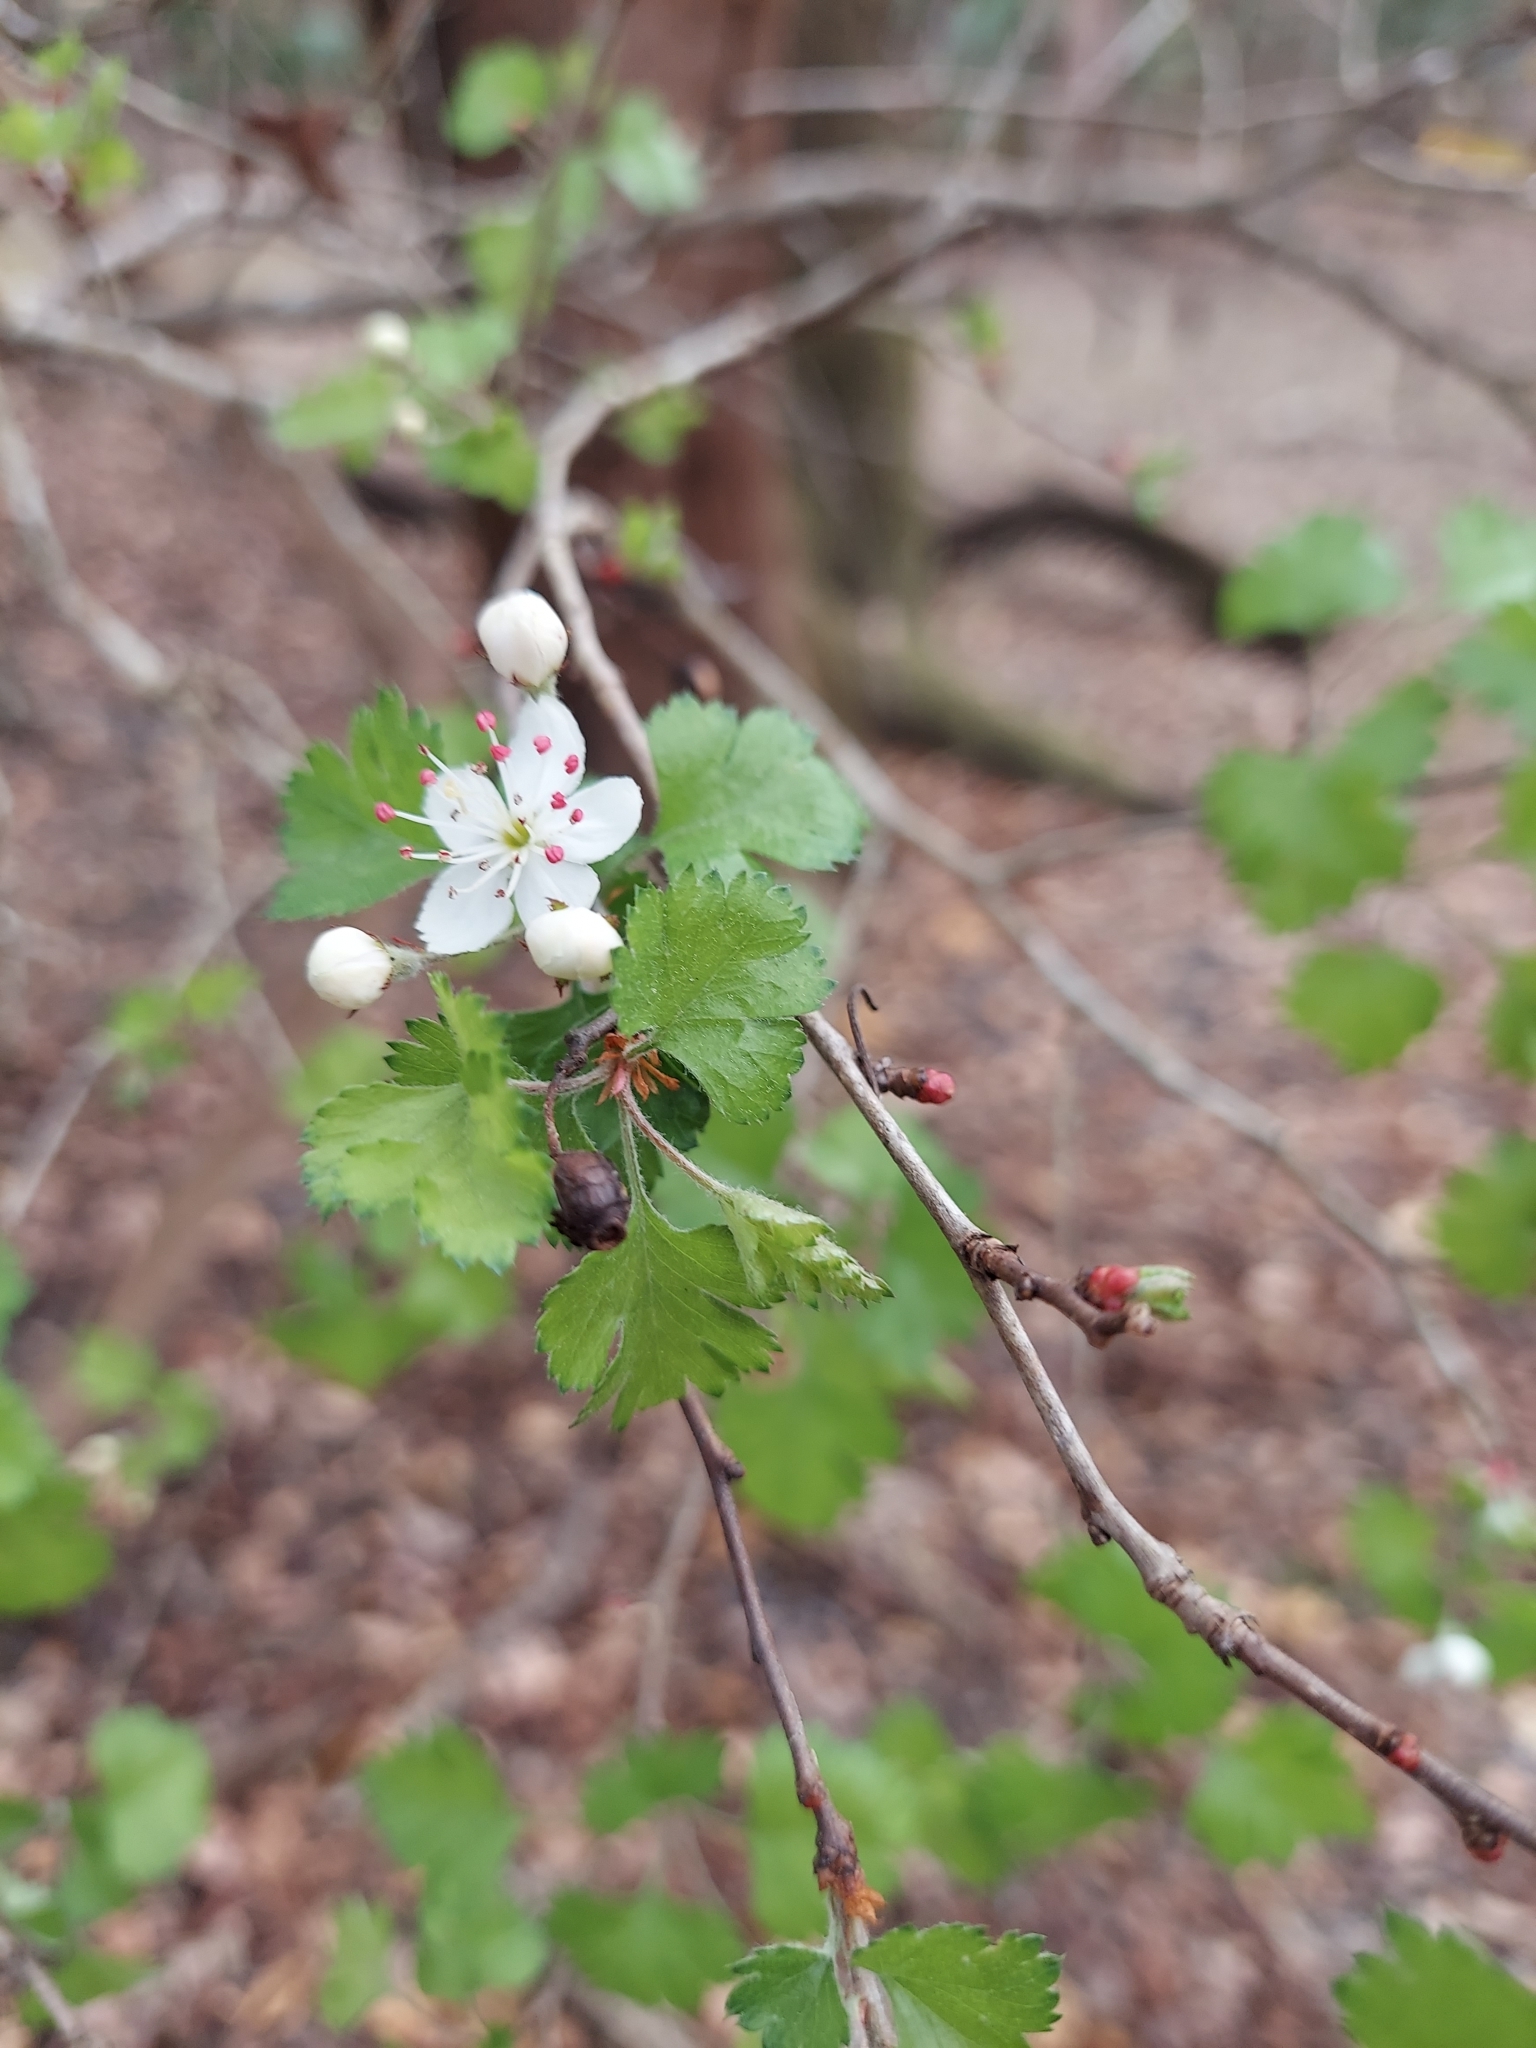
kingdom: Plantae
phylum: Tracheophyta
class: Magnoliopsida
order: Rosales
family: Rosaceae
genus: Crataegus
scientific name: Crataegus marshallii
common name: Parsley-hawthorn
